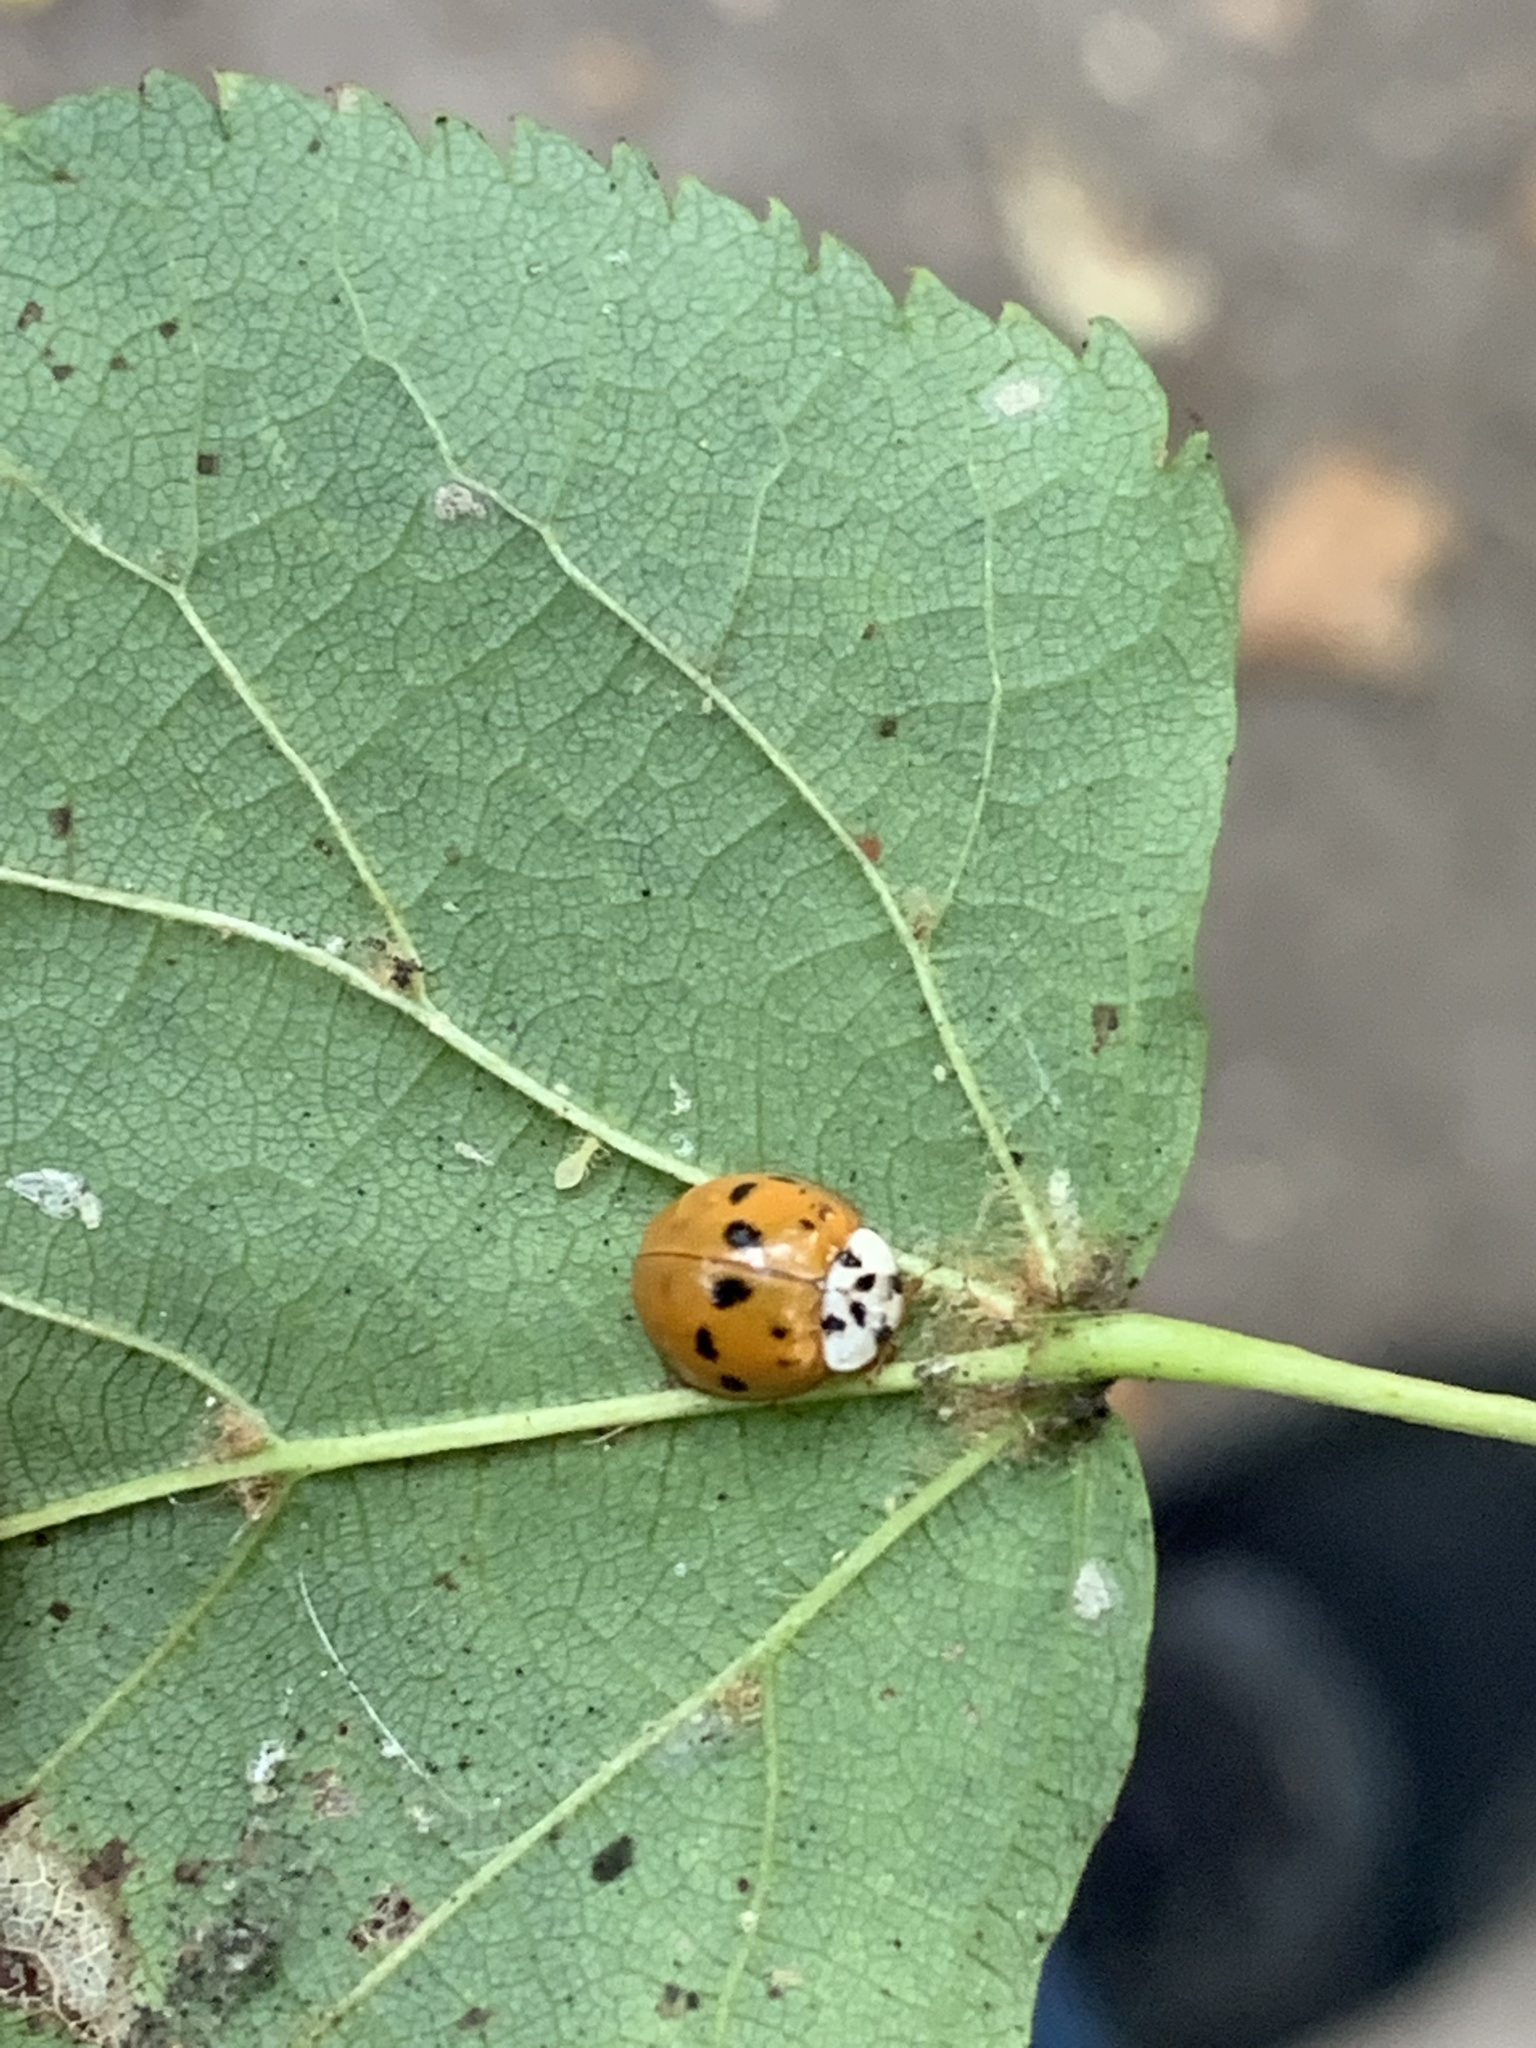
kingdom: Animalia
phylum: Arthropoda
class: Insecta
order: Coleoptera
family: Coccinellidae
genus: Harmonia
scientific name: Harmonia axyridis
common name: Harlequin ladybird
